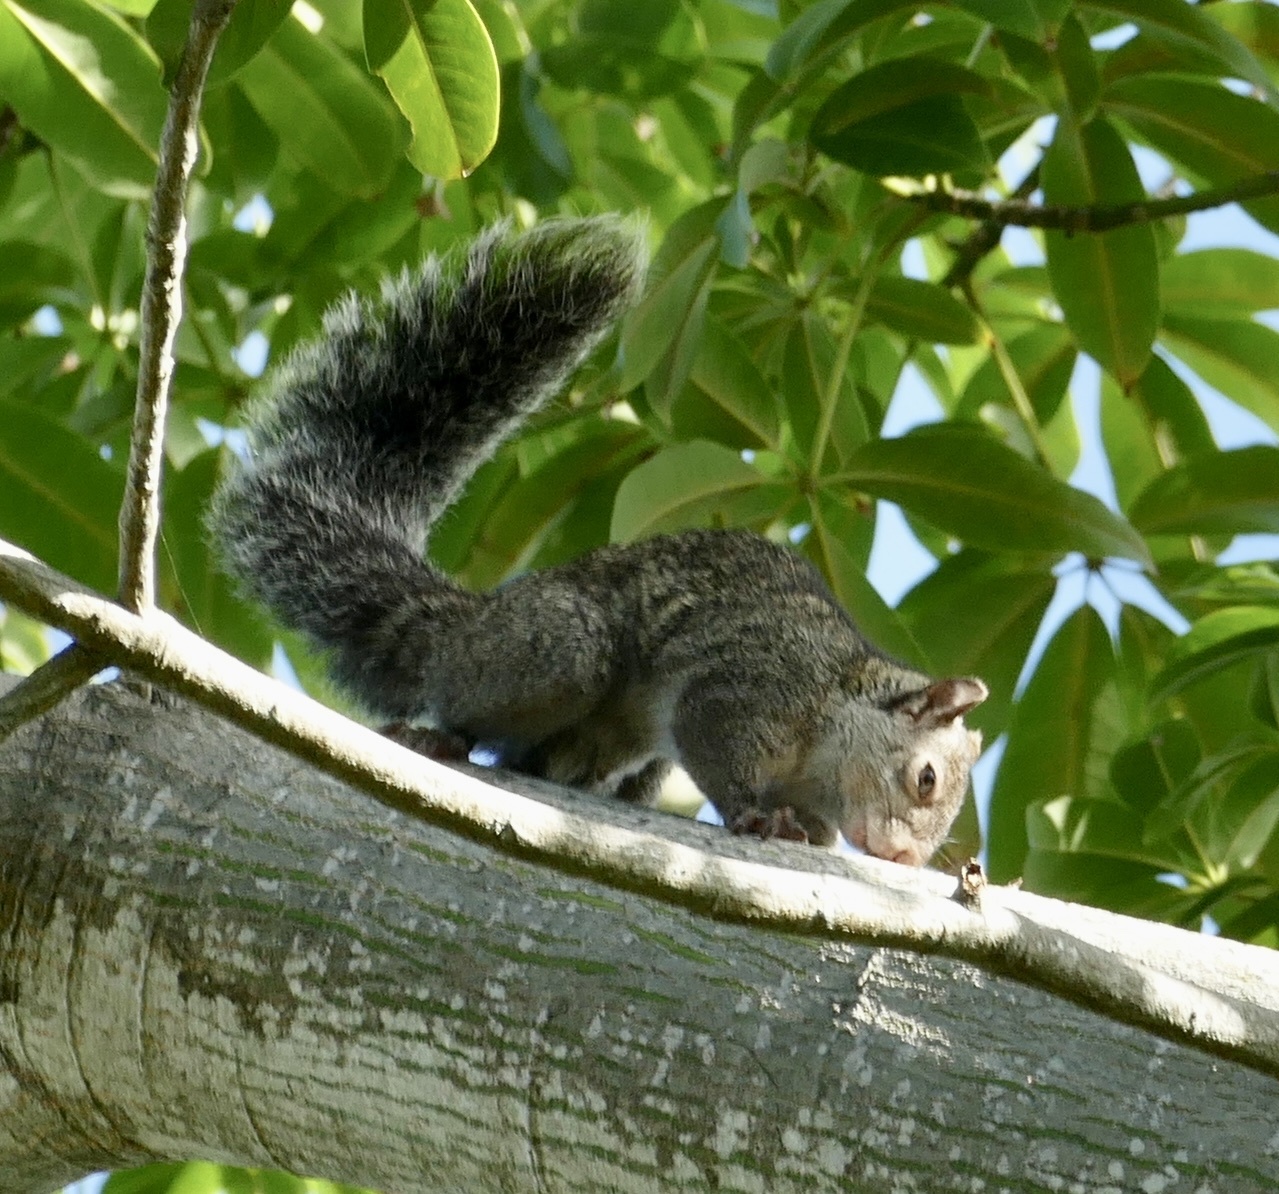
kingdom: Animalia
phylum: Chordata
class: Mammalia
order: Rodentia
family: Sciuridae
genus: Sciurus
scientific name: Sciurus yucatanensis
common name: Yucatan squirrel
